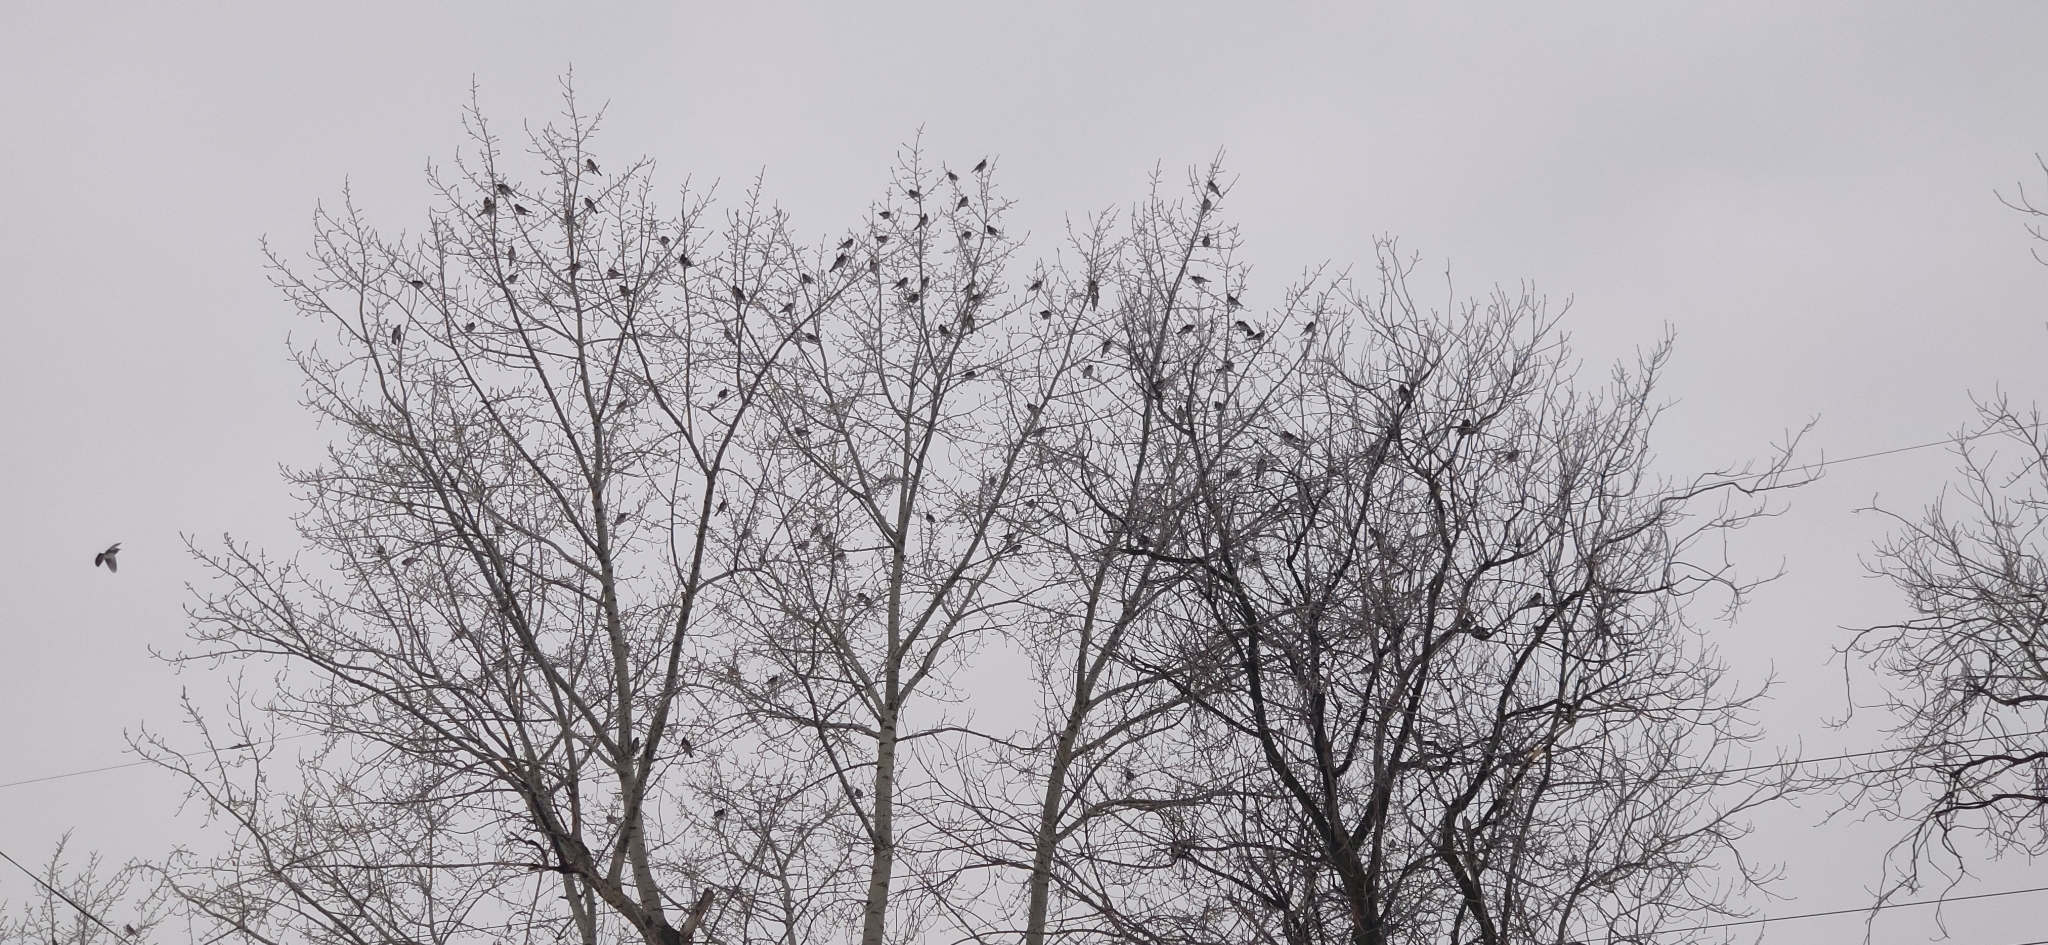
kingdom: Animalia
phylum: Chordata
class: Aves
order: Passeriformes
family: Turdidae
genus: Turdus
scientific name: Turdus pilaris
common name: Fieldfare
